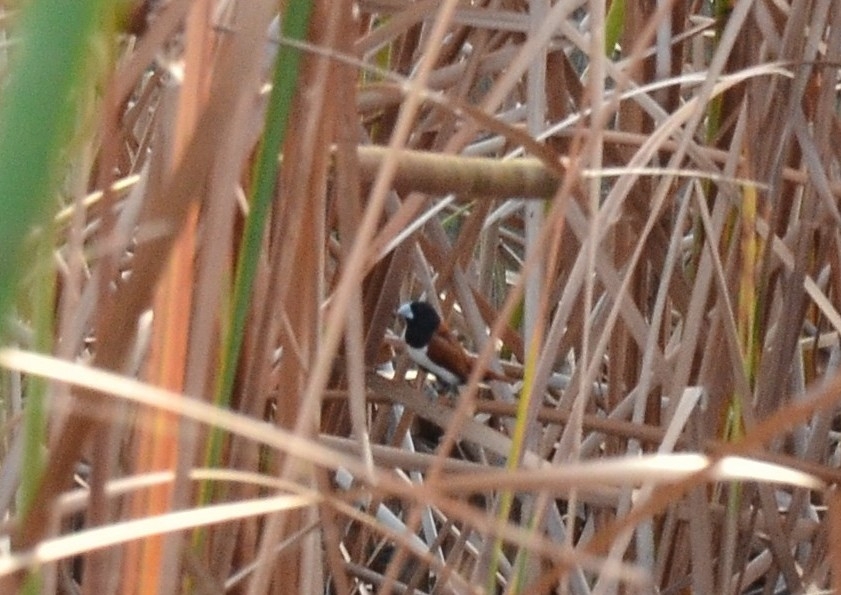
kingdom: Animalia
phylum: Chordata
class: Aves
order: Passeriformes
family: Estrildidae
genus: Lonchura
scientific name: Lonchura malacca
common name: Tricolored munia
